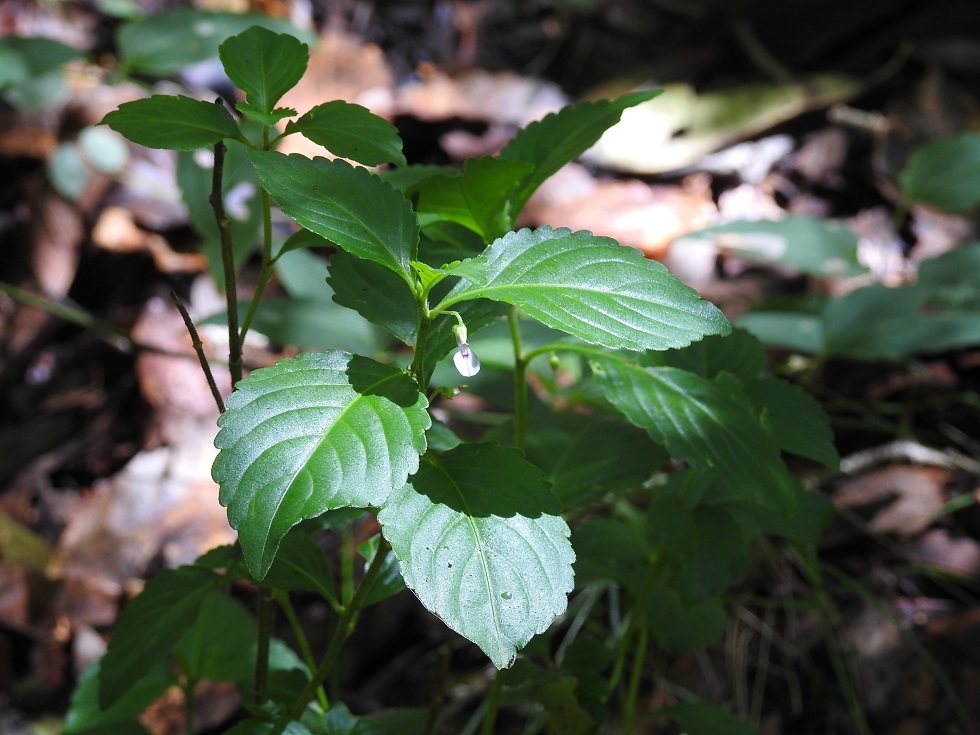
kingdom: Plantae
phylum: Tracheophyta
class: Magnoliopsida
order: Malpighiales
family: Violaceae
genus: Hybanthus
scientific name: Hybanthus longipes
